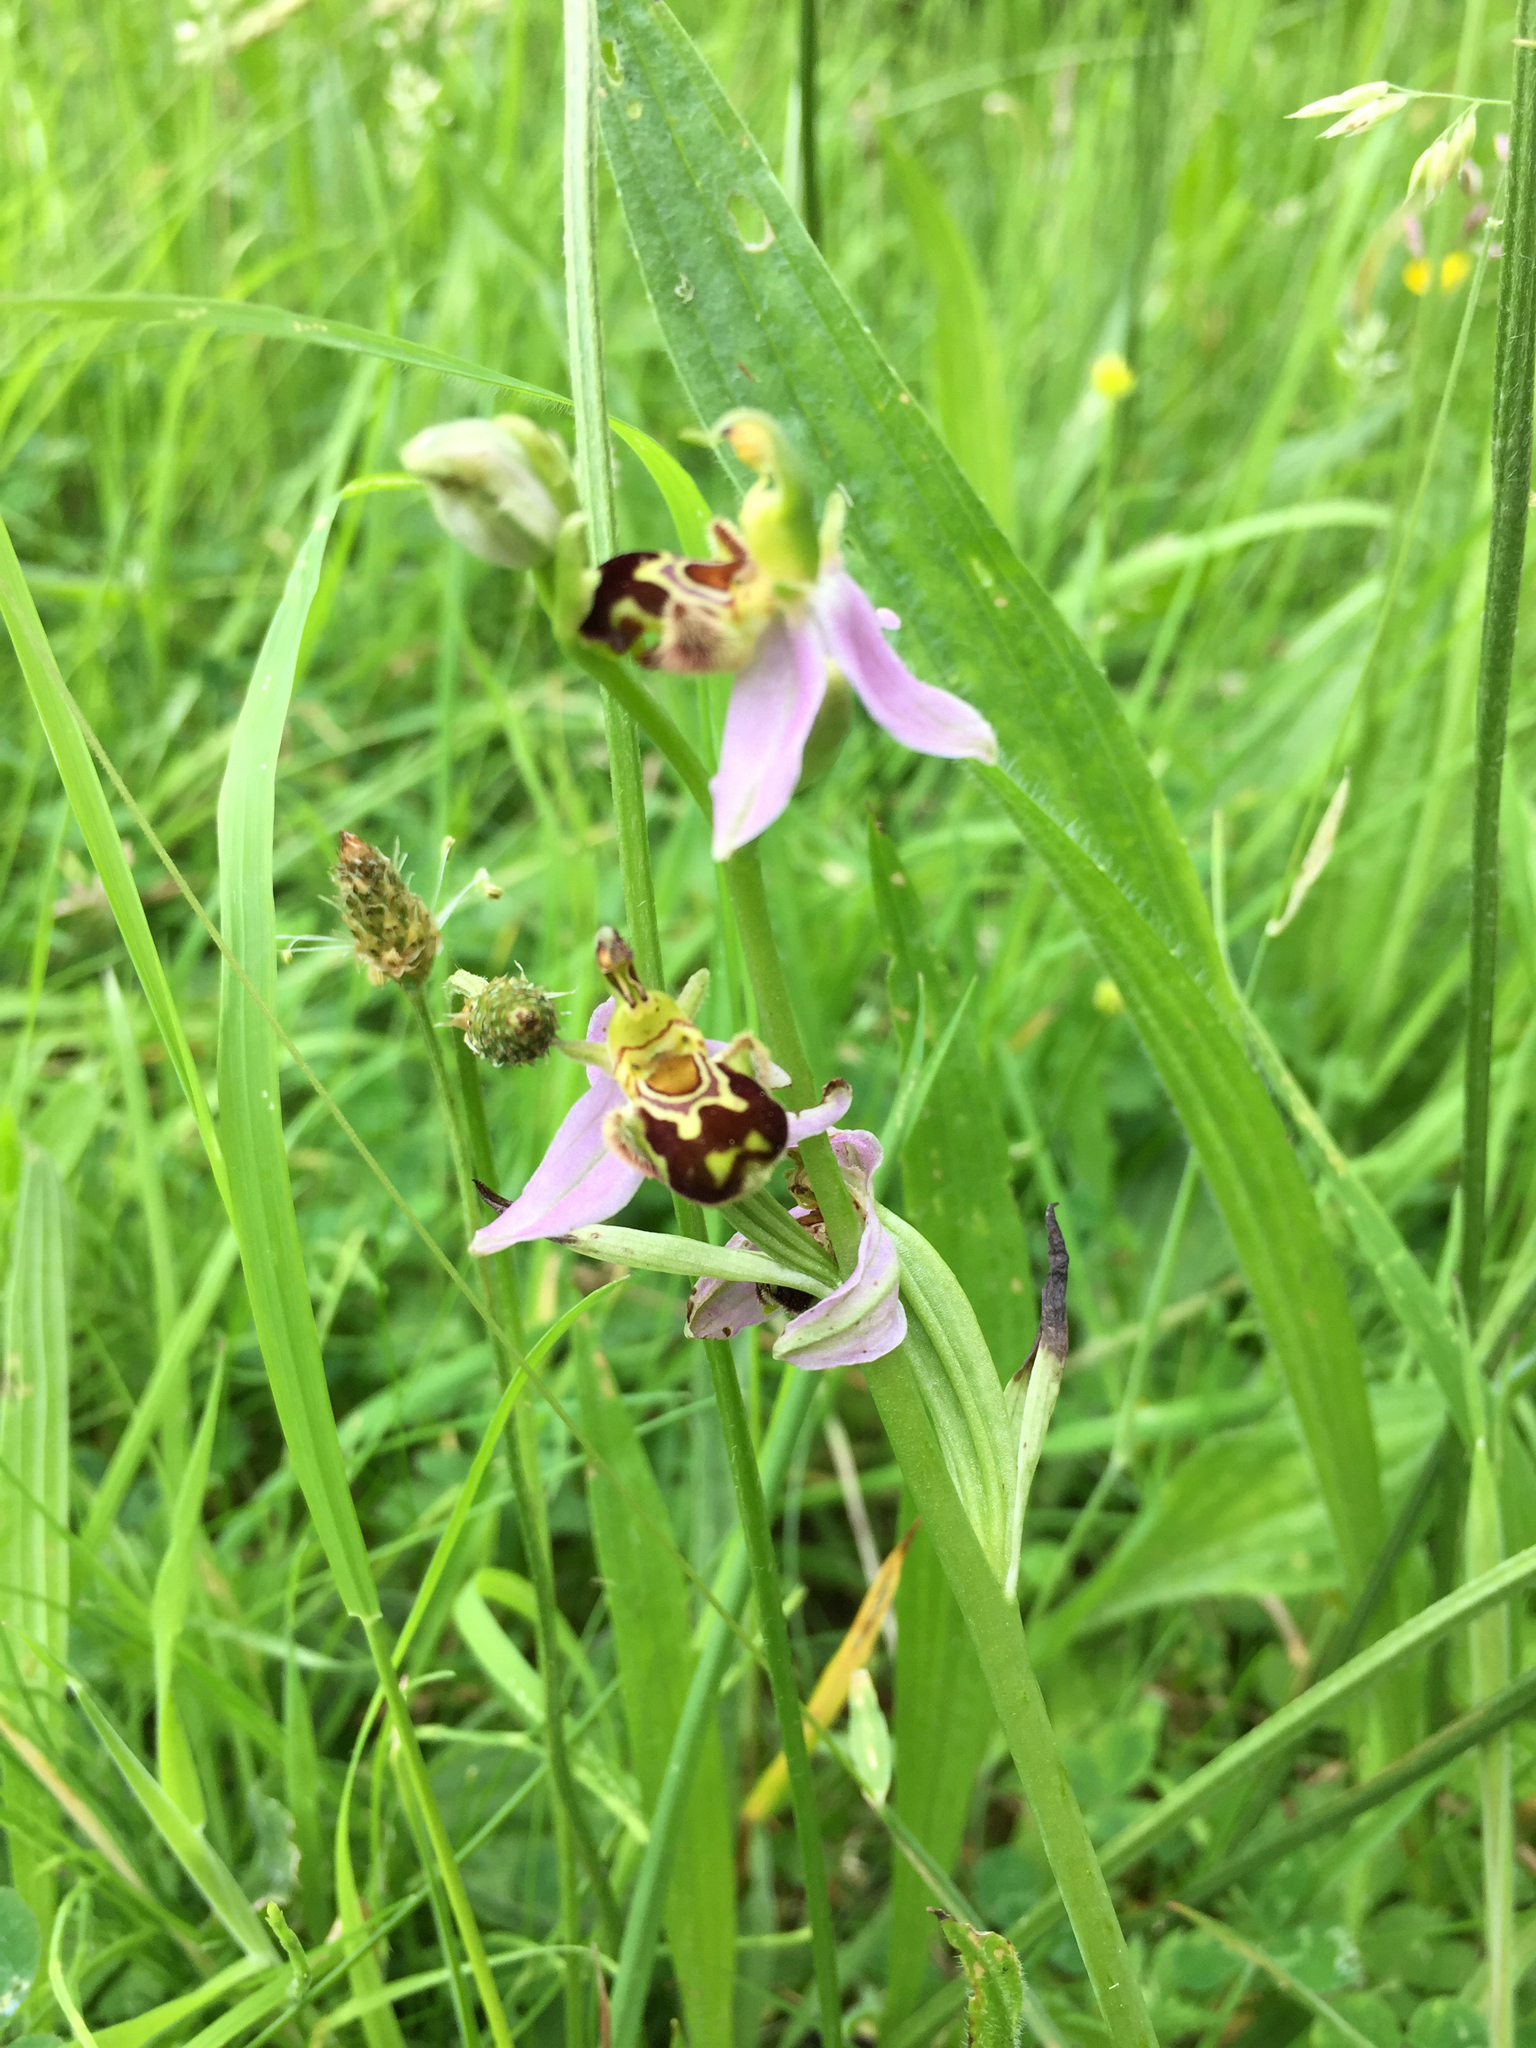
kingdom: Plantae
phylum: Tracheophyta
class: Liliopsida
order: Asparagales
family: Orchidaceae
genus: Ophrys
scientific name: Ophrys apifera
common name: Bee orchid
